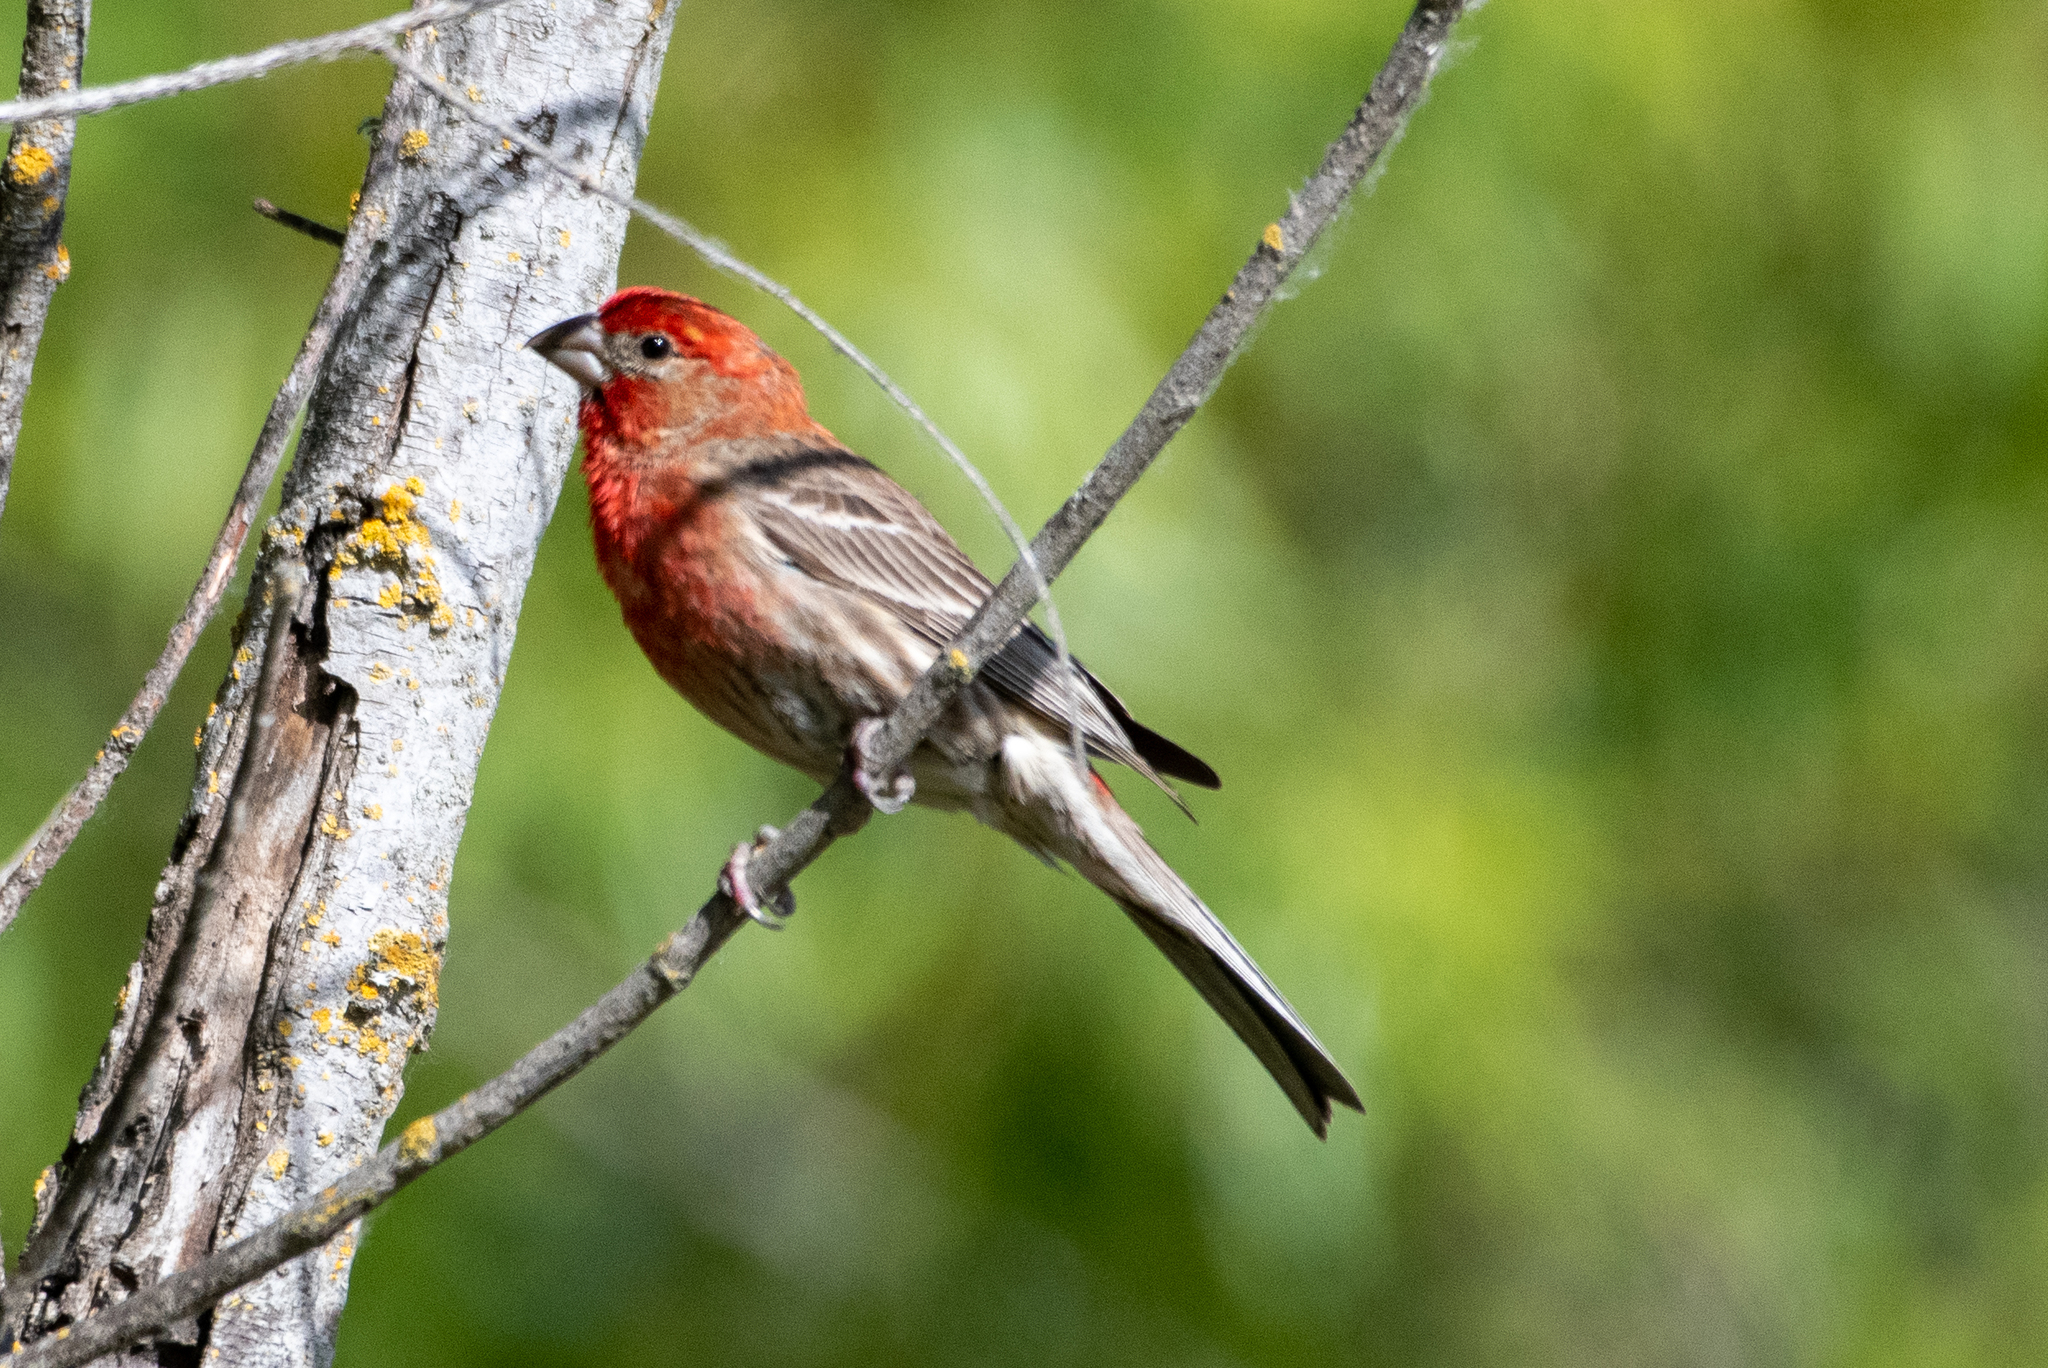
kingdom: Animalia
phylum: Chordata
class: Aves
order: Passeriformes
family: Fringillidae
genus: Haemorhous
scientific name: Haemorhous mexicanus
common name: House finch
